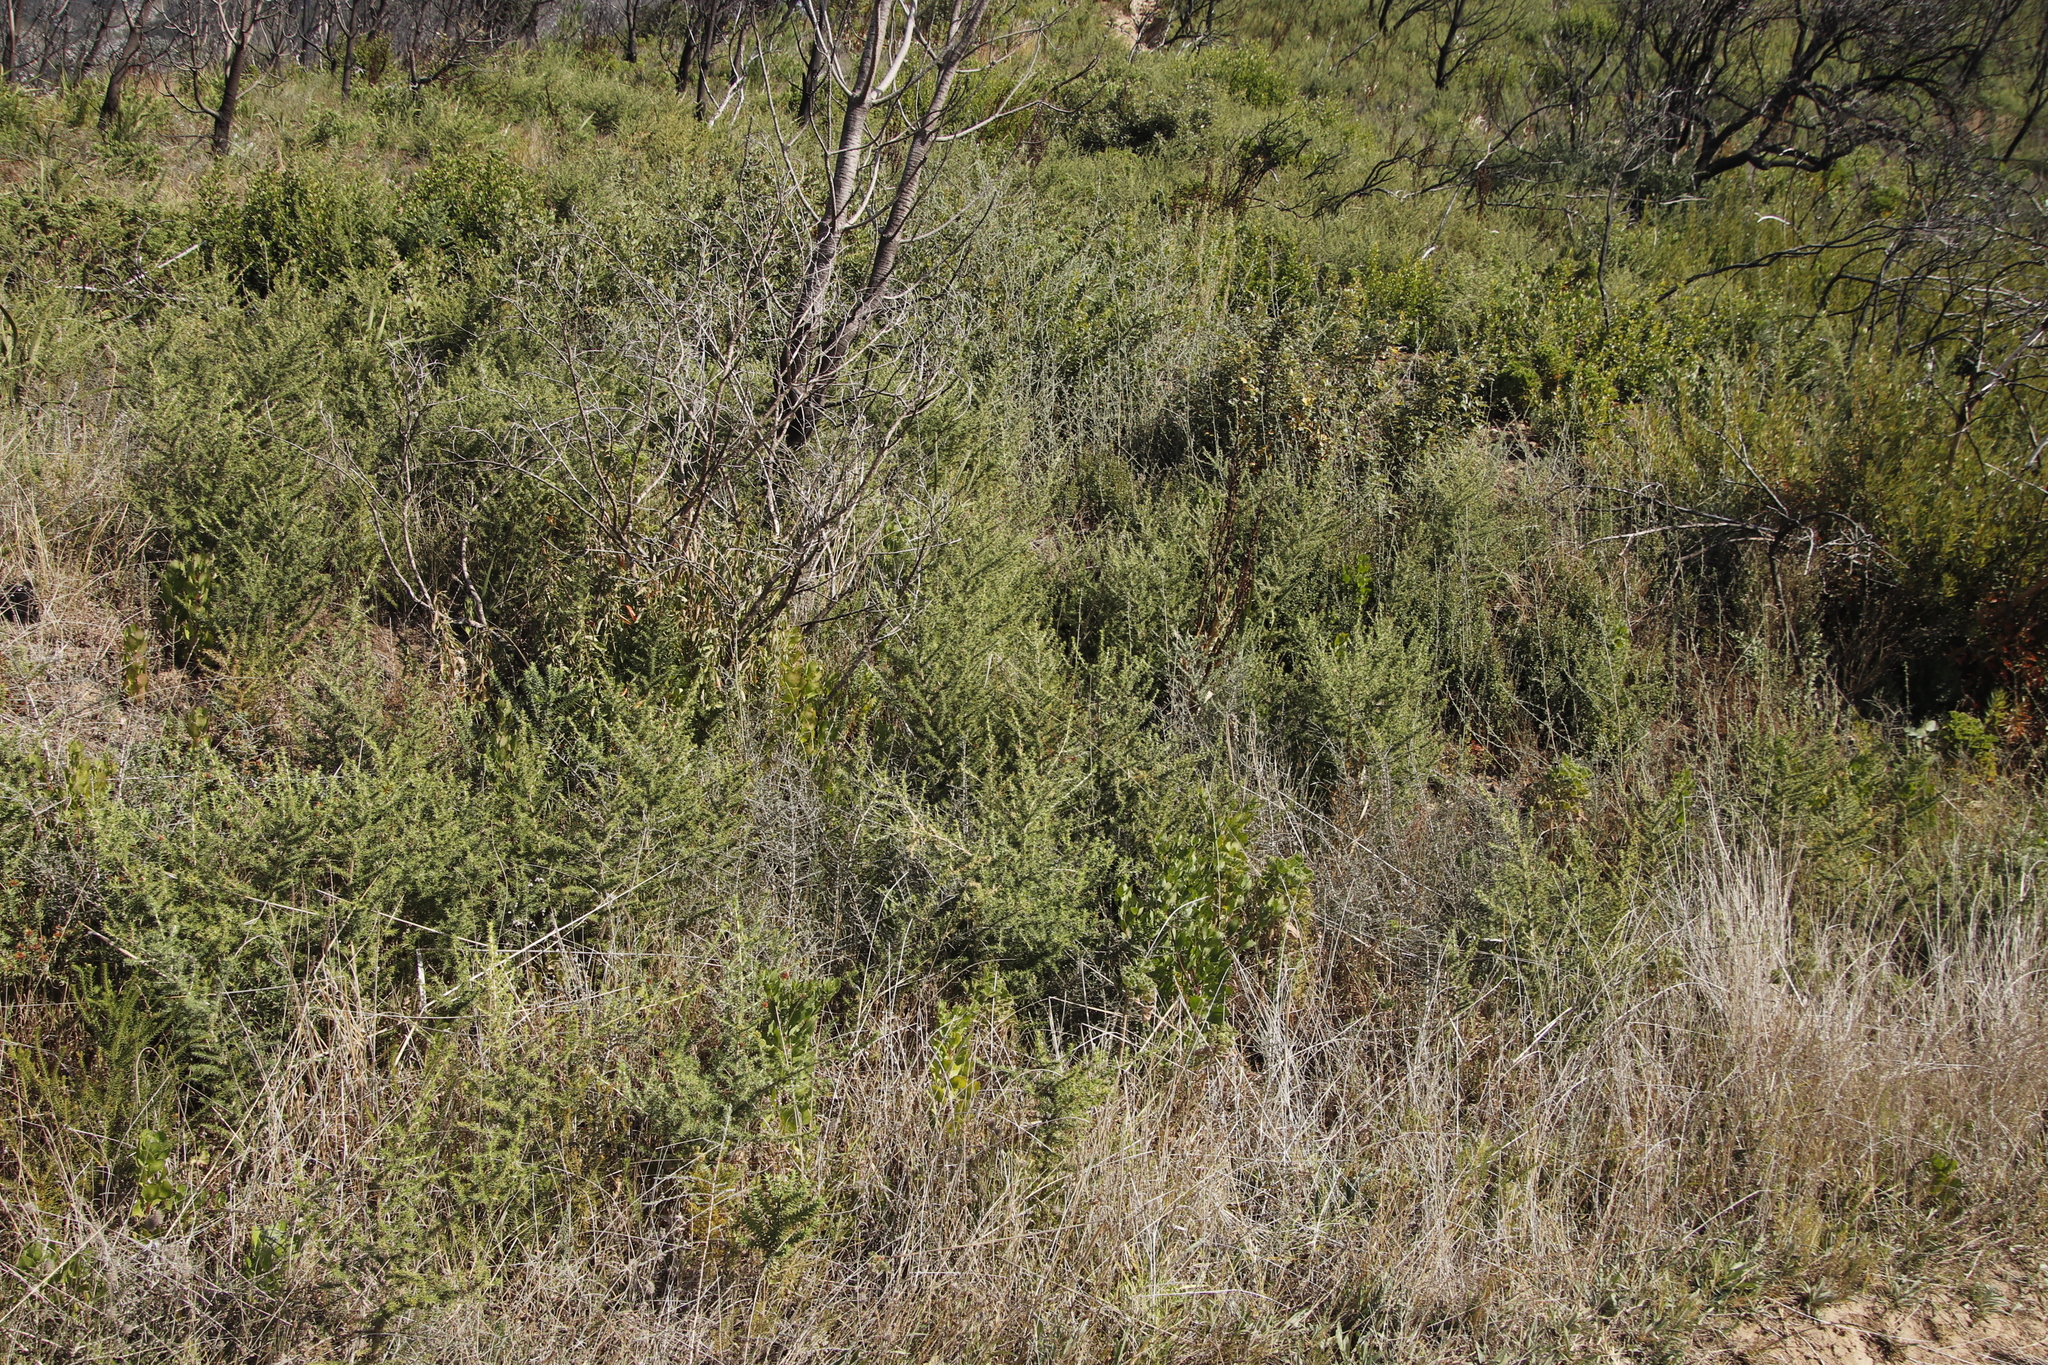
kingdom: Plantae
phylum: Tracheophyta
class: Magnoliopsida
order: Fabales
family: Fabaceae
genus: Aspalathus
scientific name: Aspalathus chenopoda
